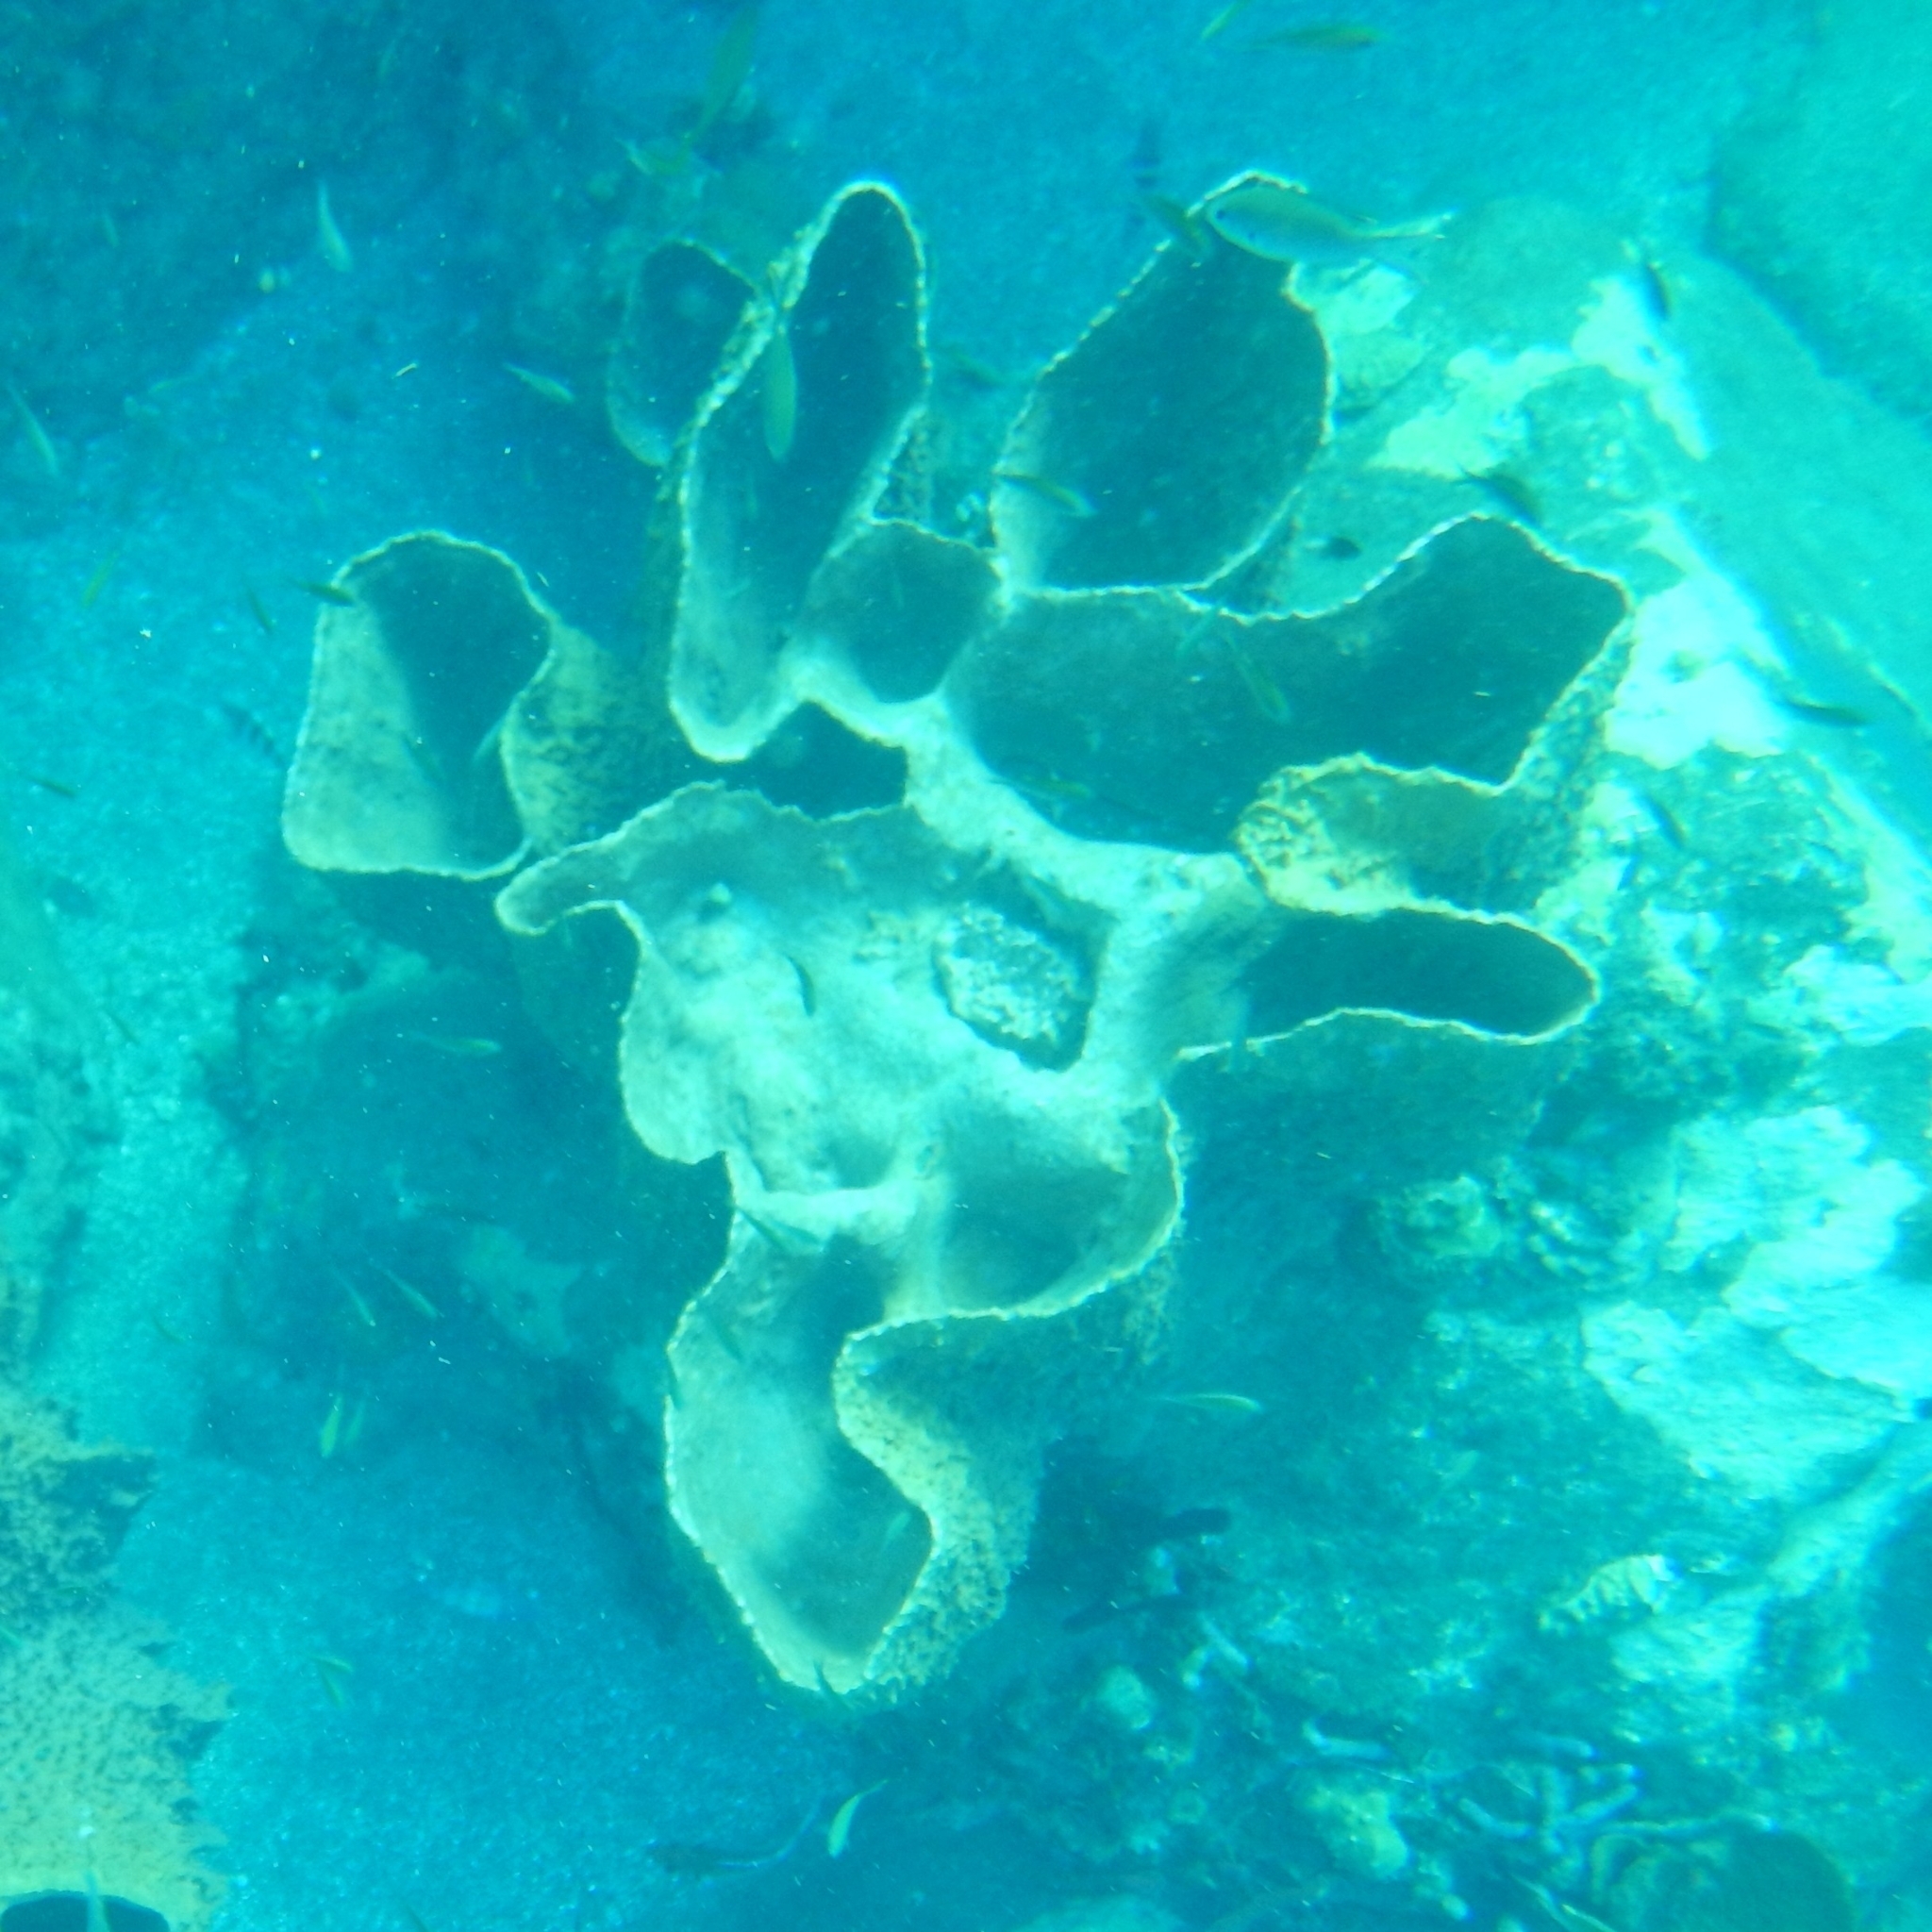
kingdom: Animalia
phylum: Porifera
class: Demospongiae
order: Haplosclerida
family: Petrosiidae
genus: Xestospongia
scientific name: Xestospongia muta
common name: Giant barrel sponge
